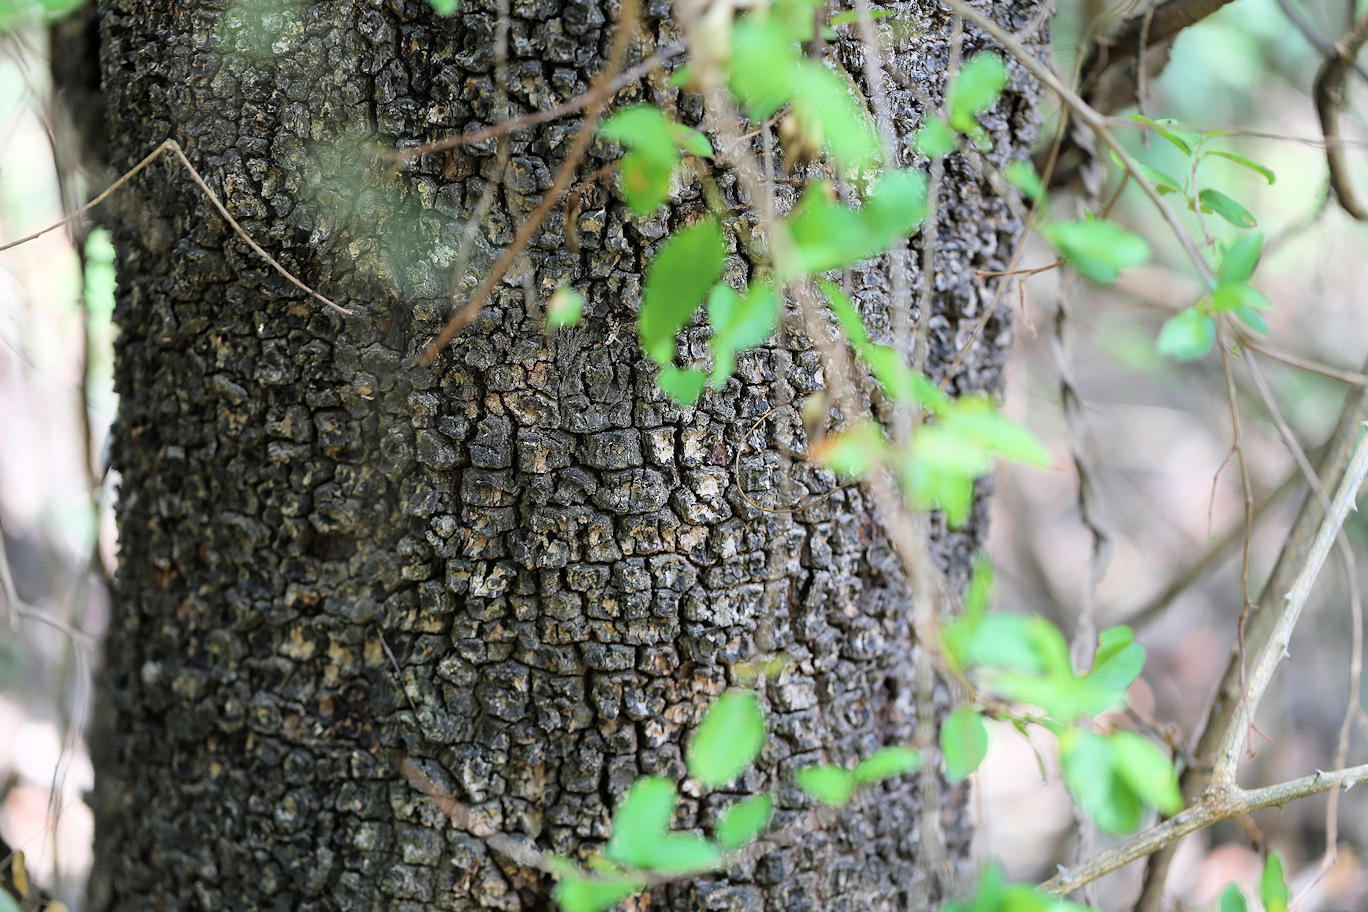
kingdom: Plantae
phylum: Tracheophyta
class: Magnoliopsida
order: Malpighiales
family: Euphorbiaceae
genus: Spirostachys
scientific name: Spirostachys africana
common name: Tamboti
